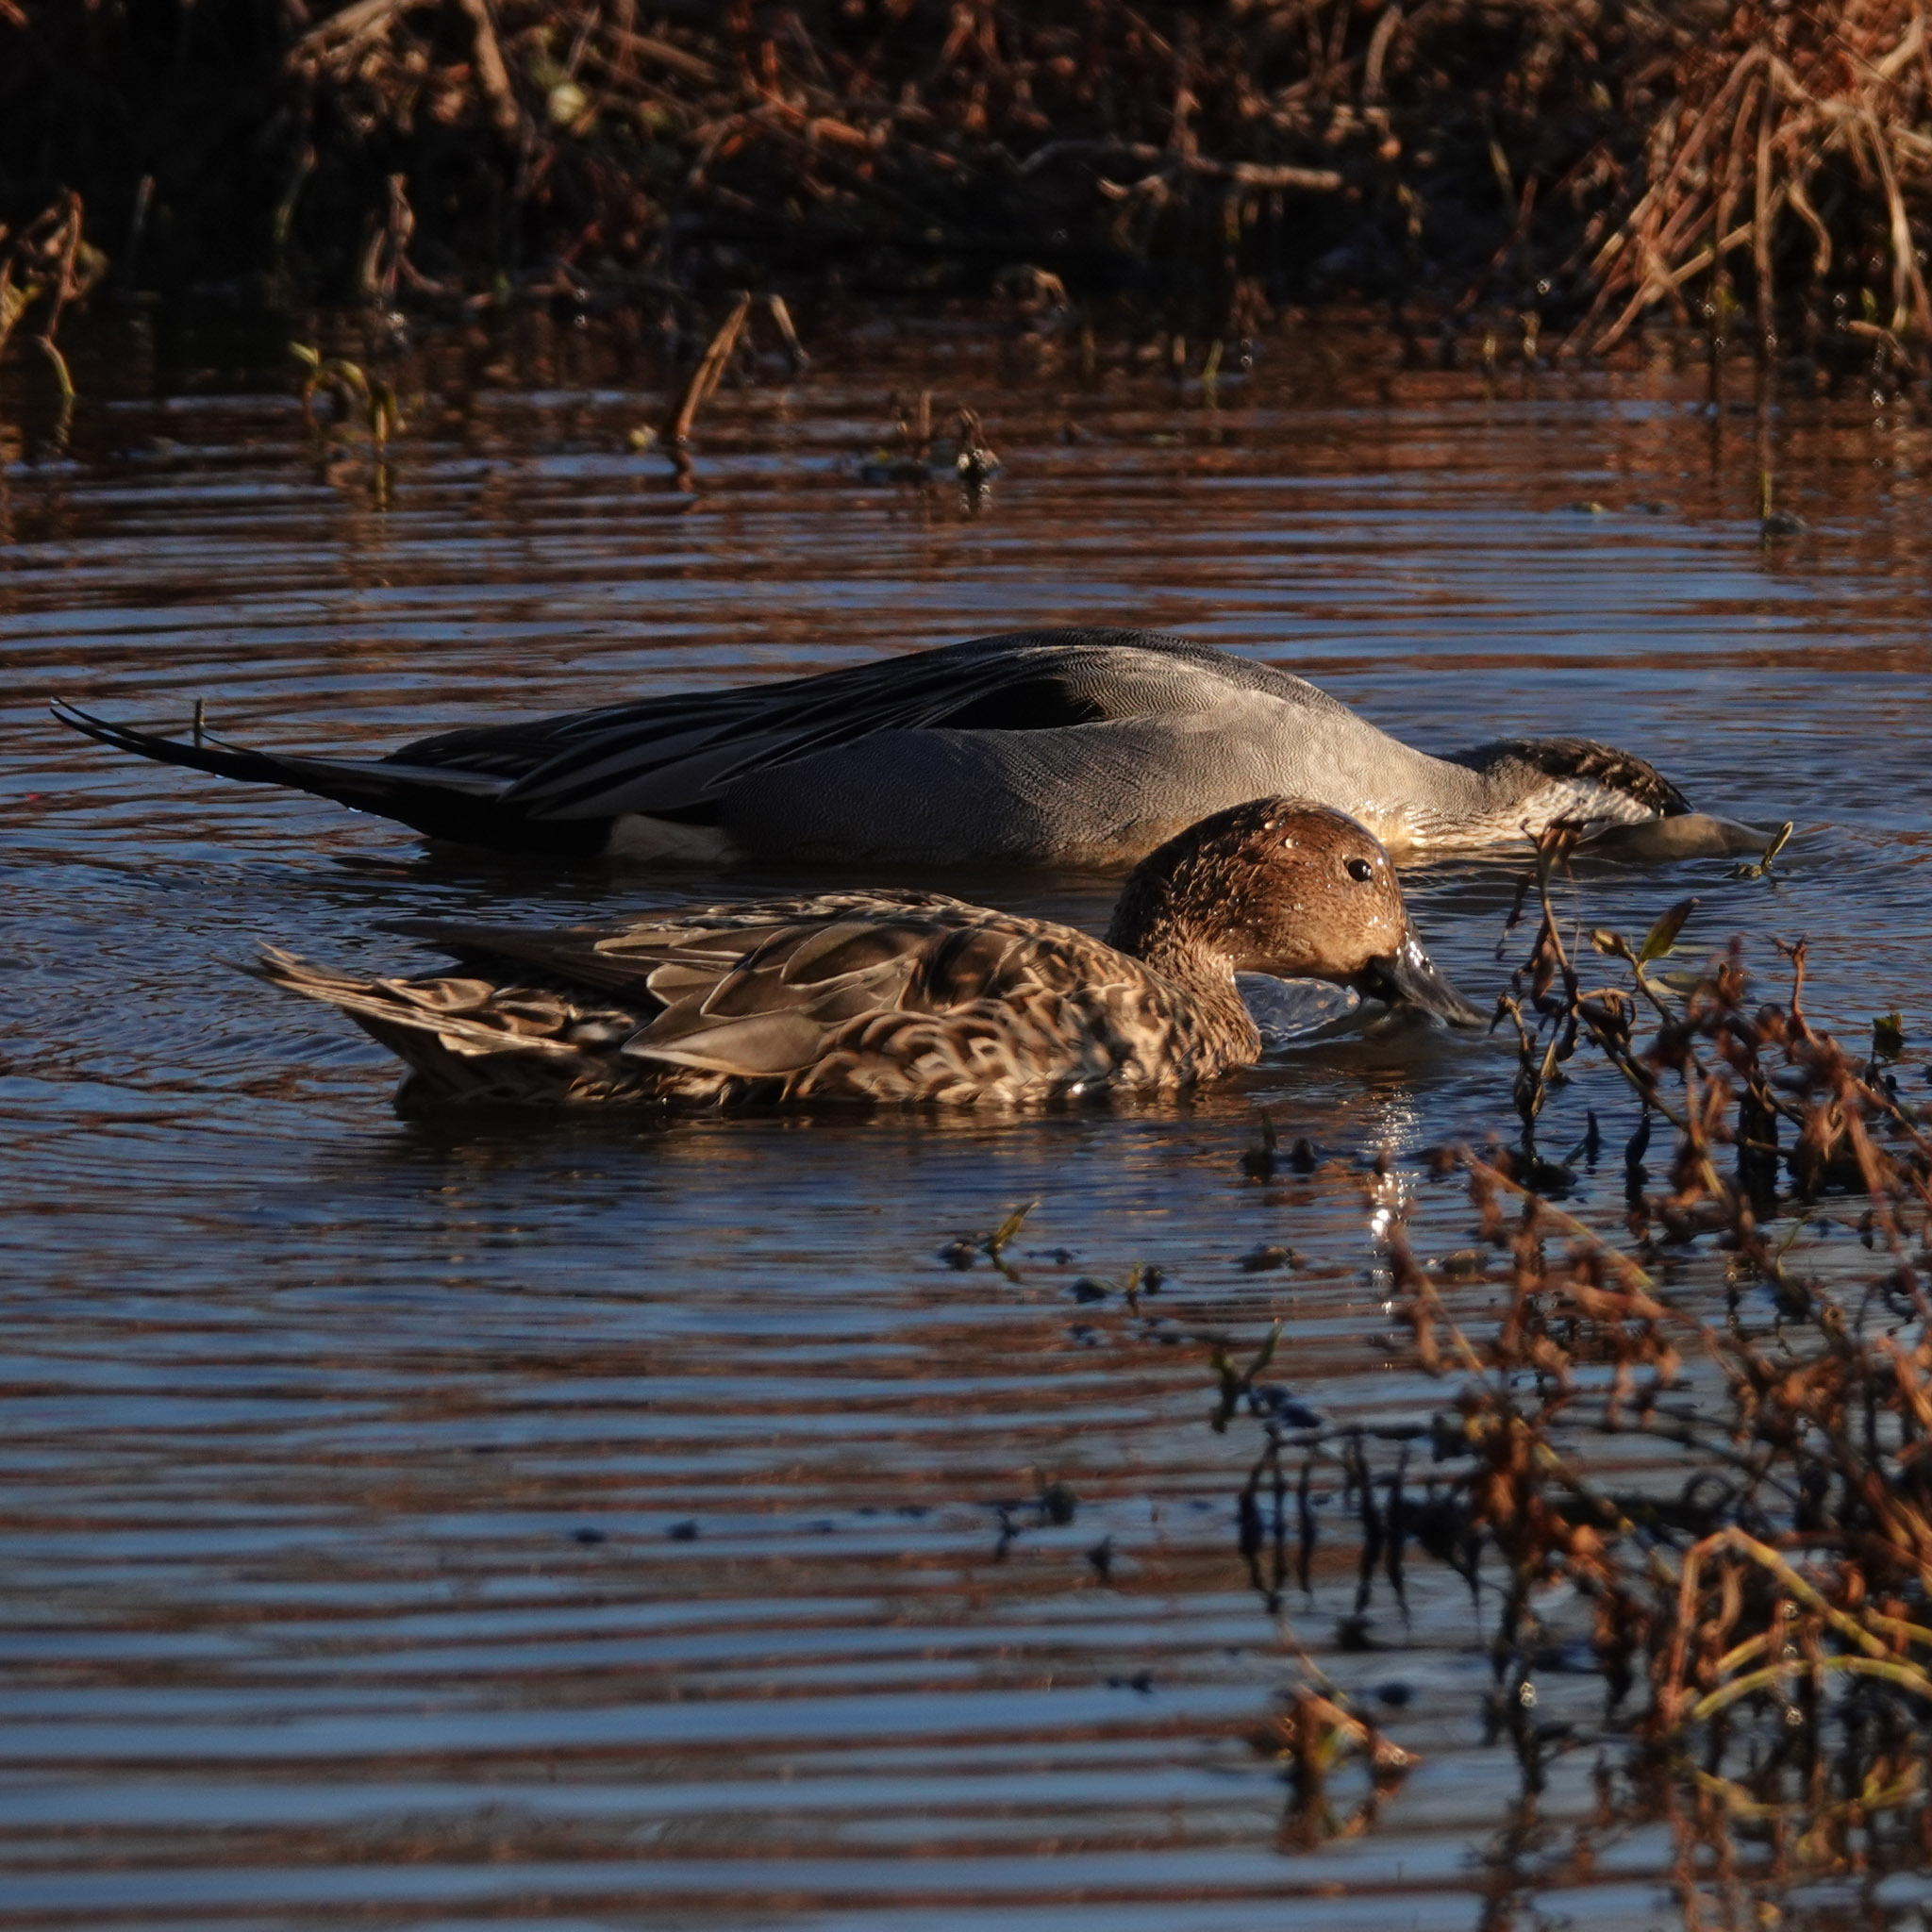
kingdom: Animalia
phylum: Chordata
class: Aves
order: Anseriformes
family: Anatidae
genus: Anas
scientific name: Anas acuta
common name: Northern pintail
